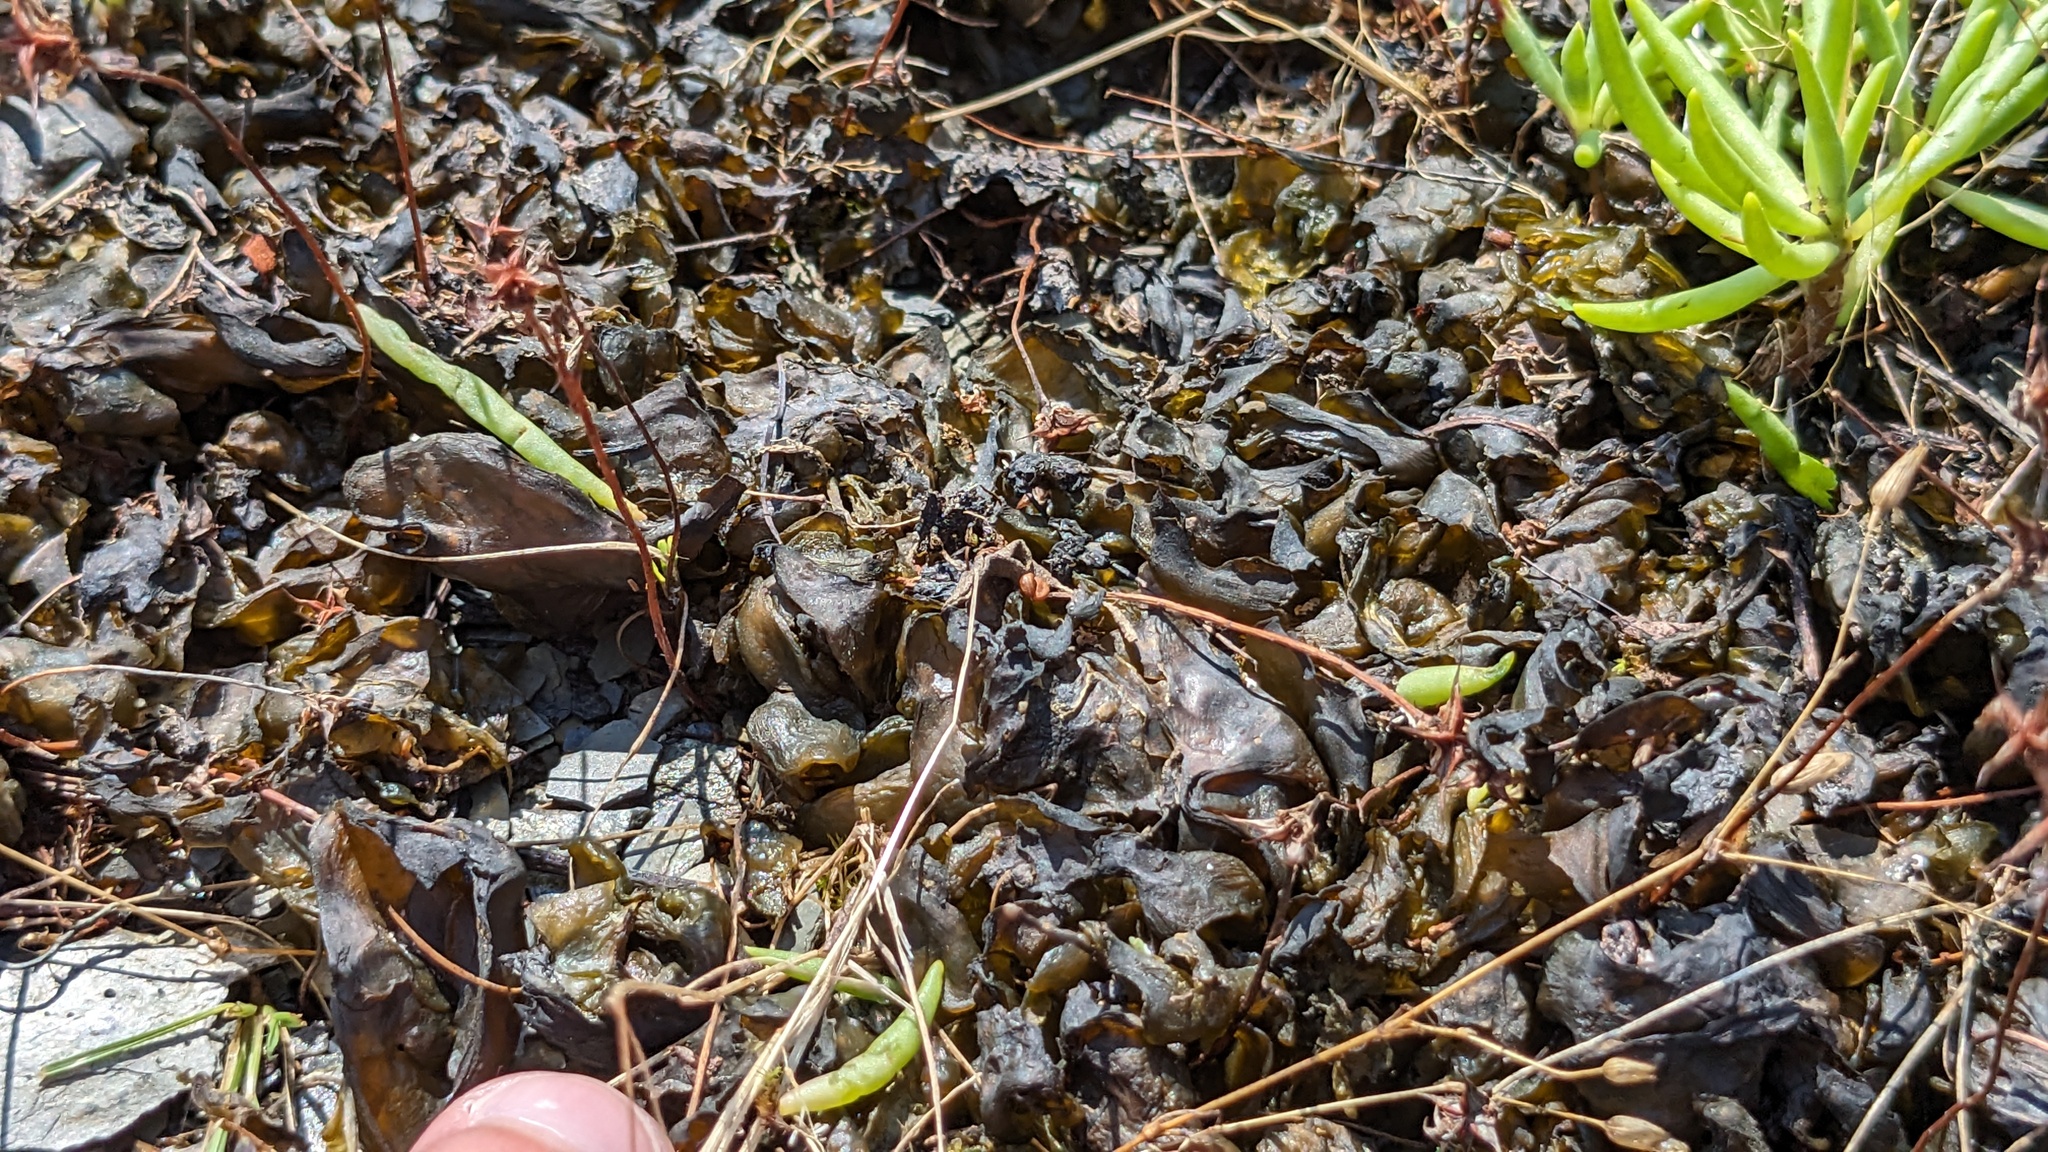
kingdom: Bacteria
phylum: Cyanobacteria
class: Cyanobacteriia
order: Cyanobacteriales
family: Nostocaceae
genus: Nostoc
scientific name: Nostoc commune
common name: Star jelly
